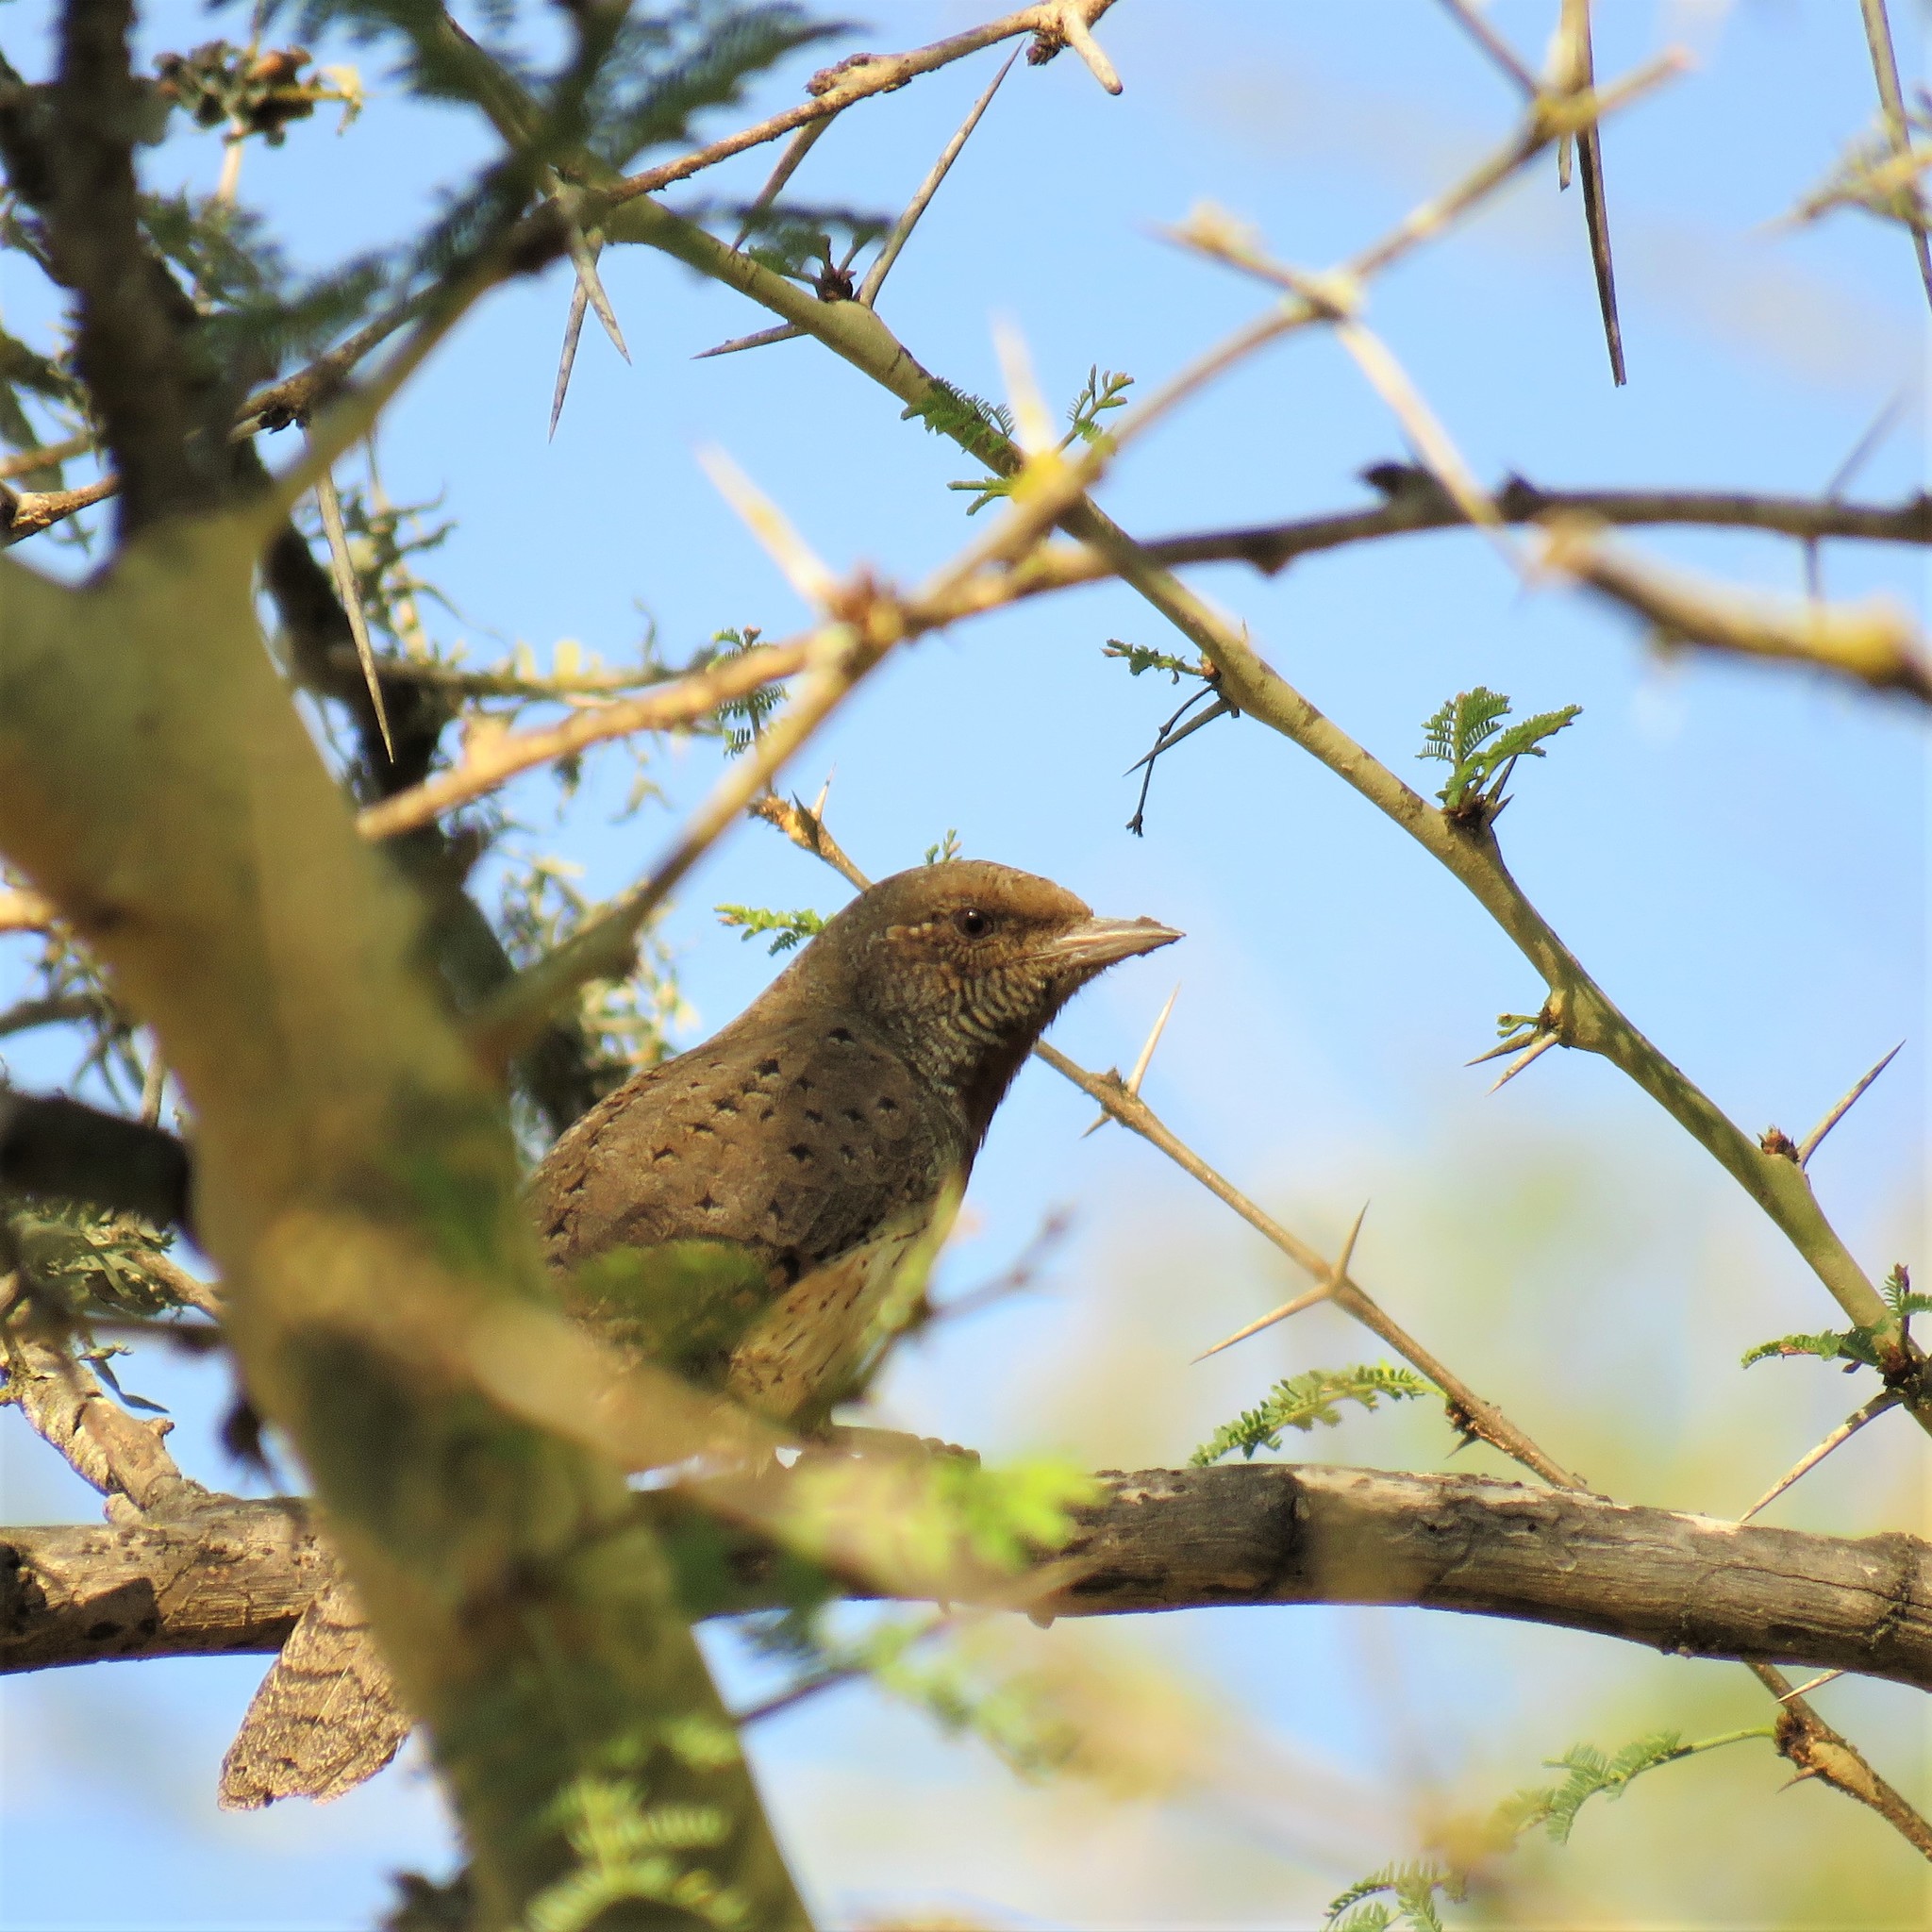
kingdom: Animalia
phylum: Chordata
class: Aves
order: Piciformes
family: Picidae
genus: Jynx
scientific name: Jynx ruficollis
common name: Red-throated wryneck
